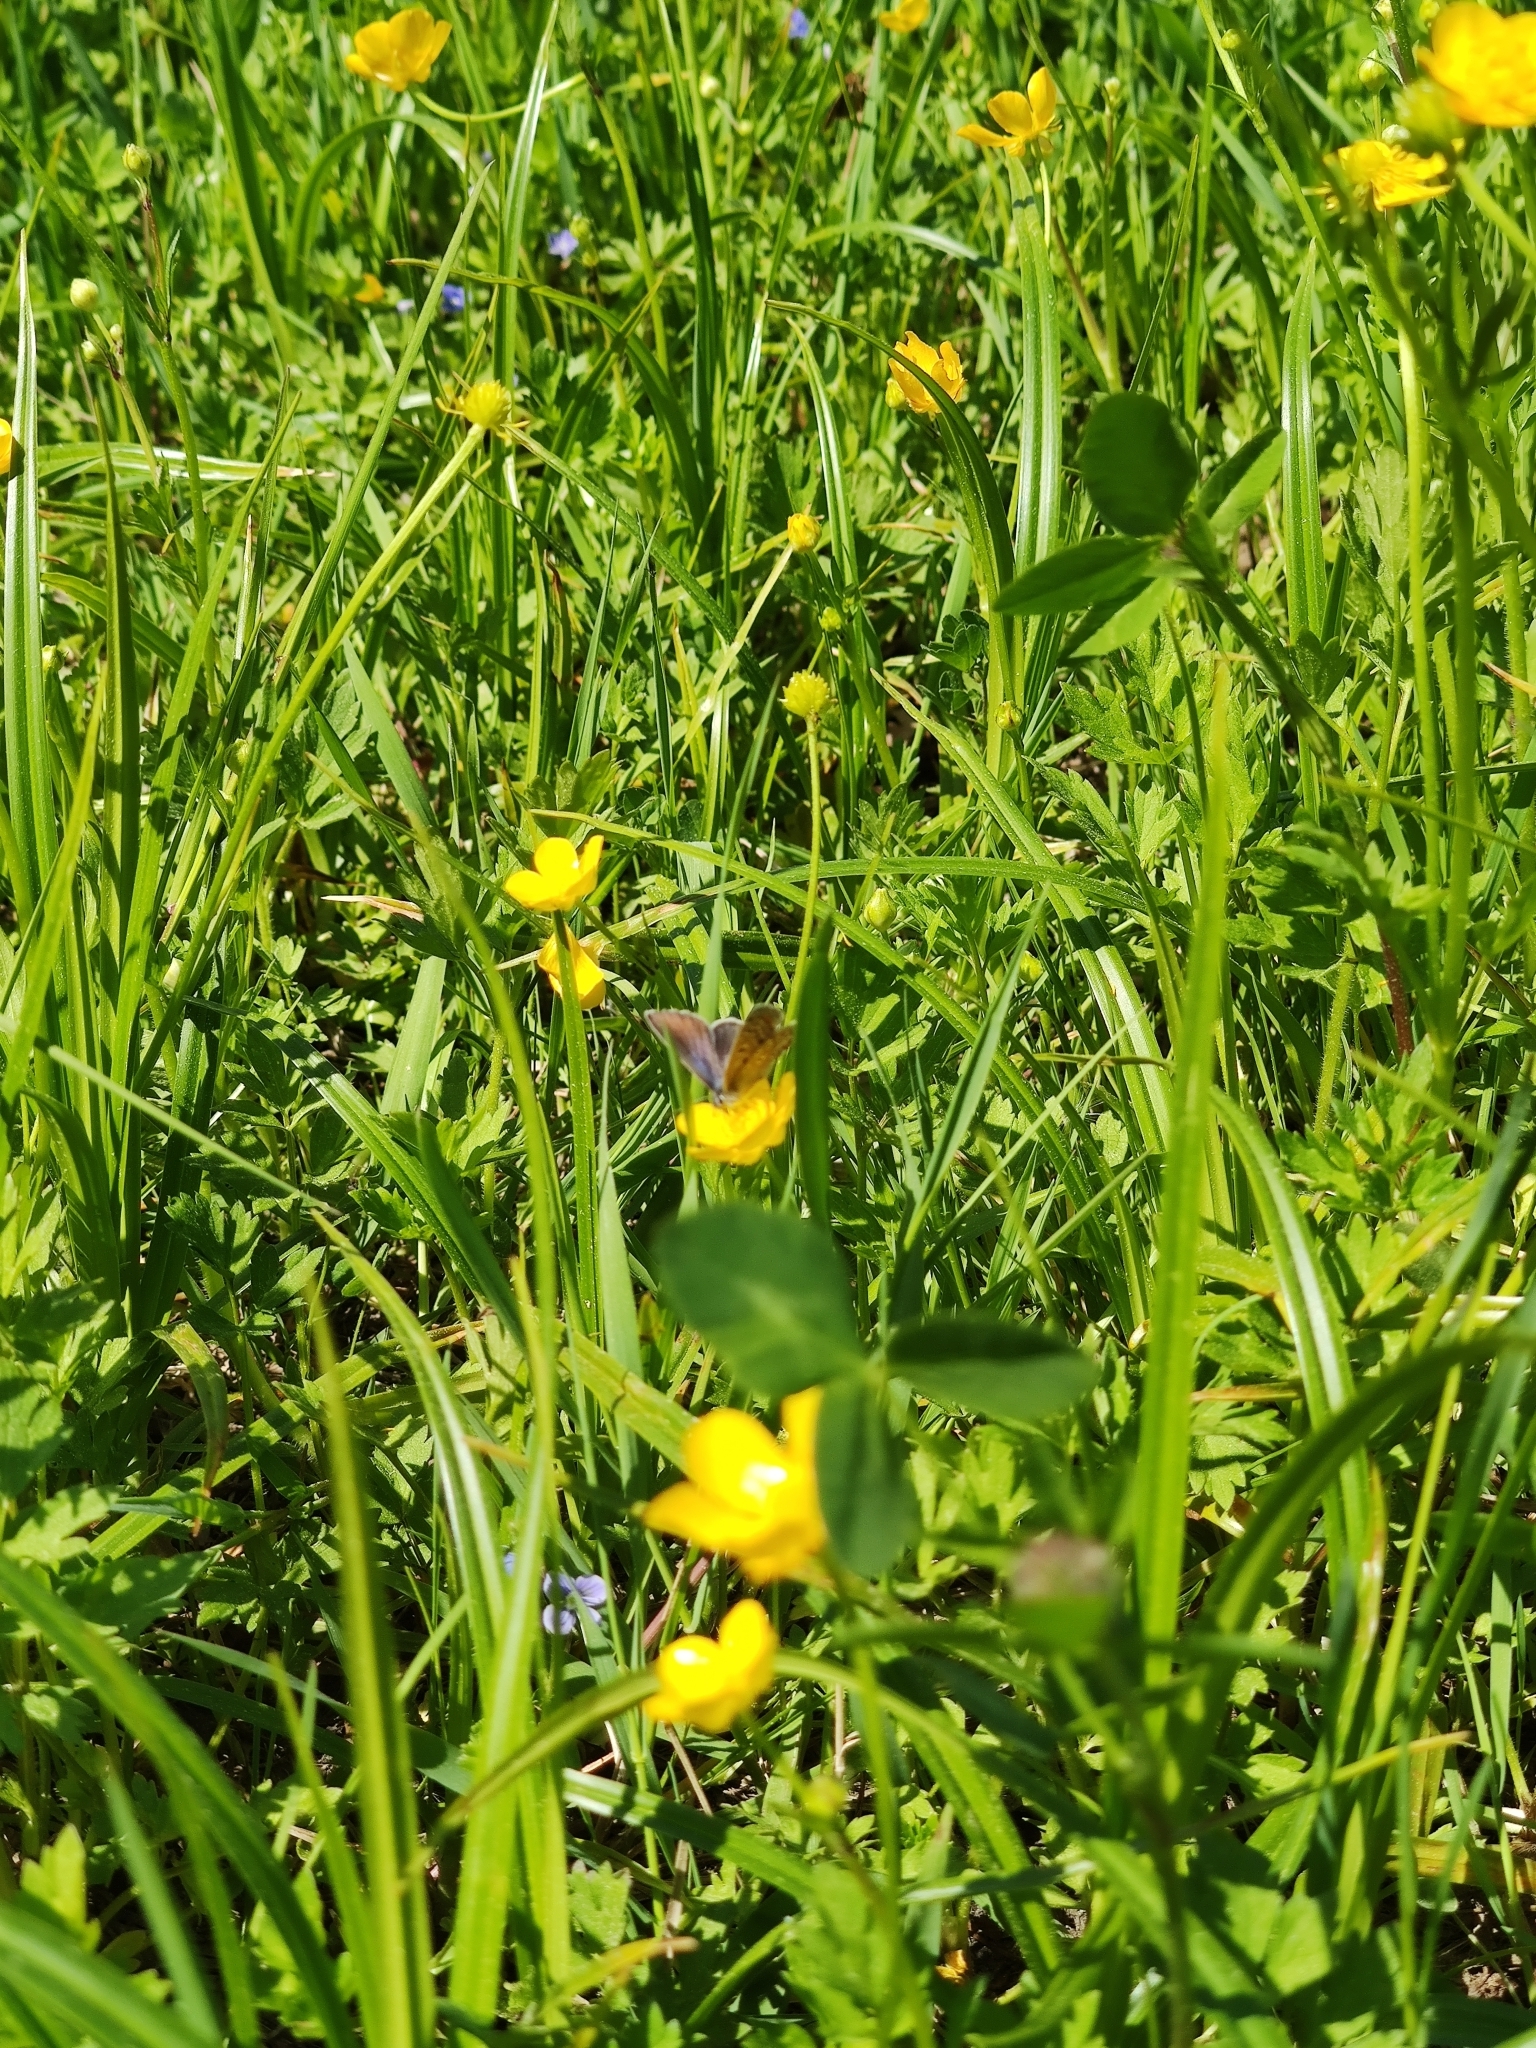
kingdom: Animalia
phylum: Arthropoda
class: Insecta
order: Lepidoptera
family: Lycaenidae
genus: Polyommatus
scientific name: Polyommatus icarus
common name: Common blue
